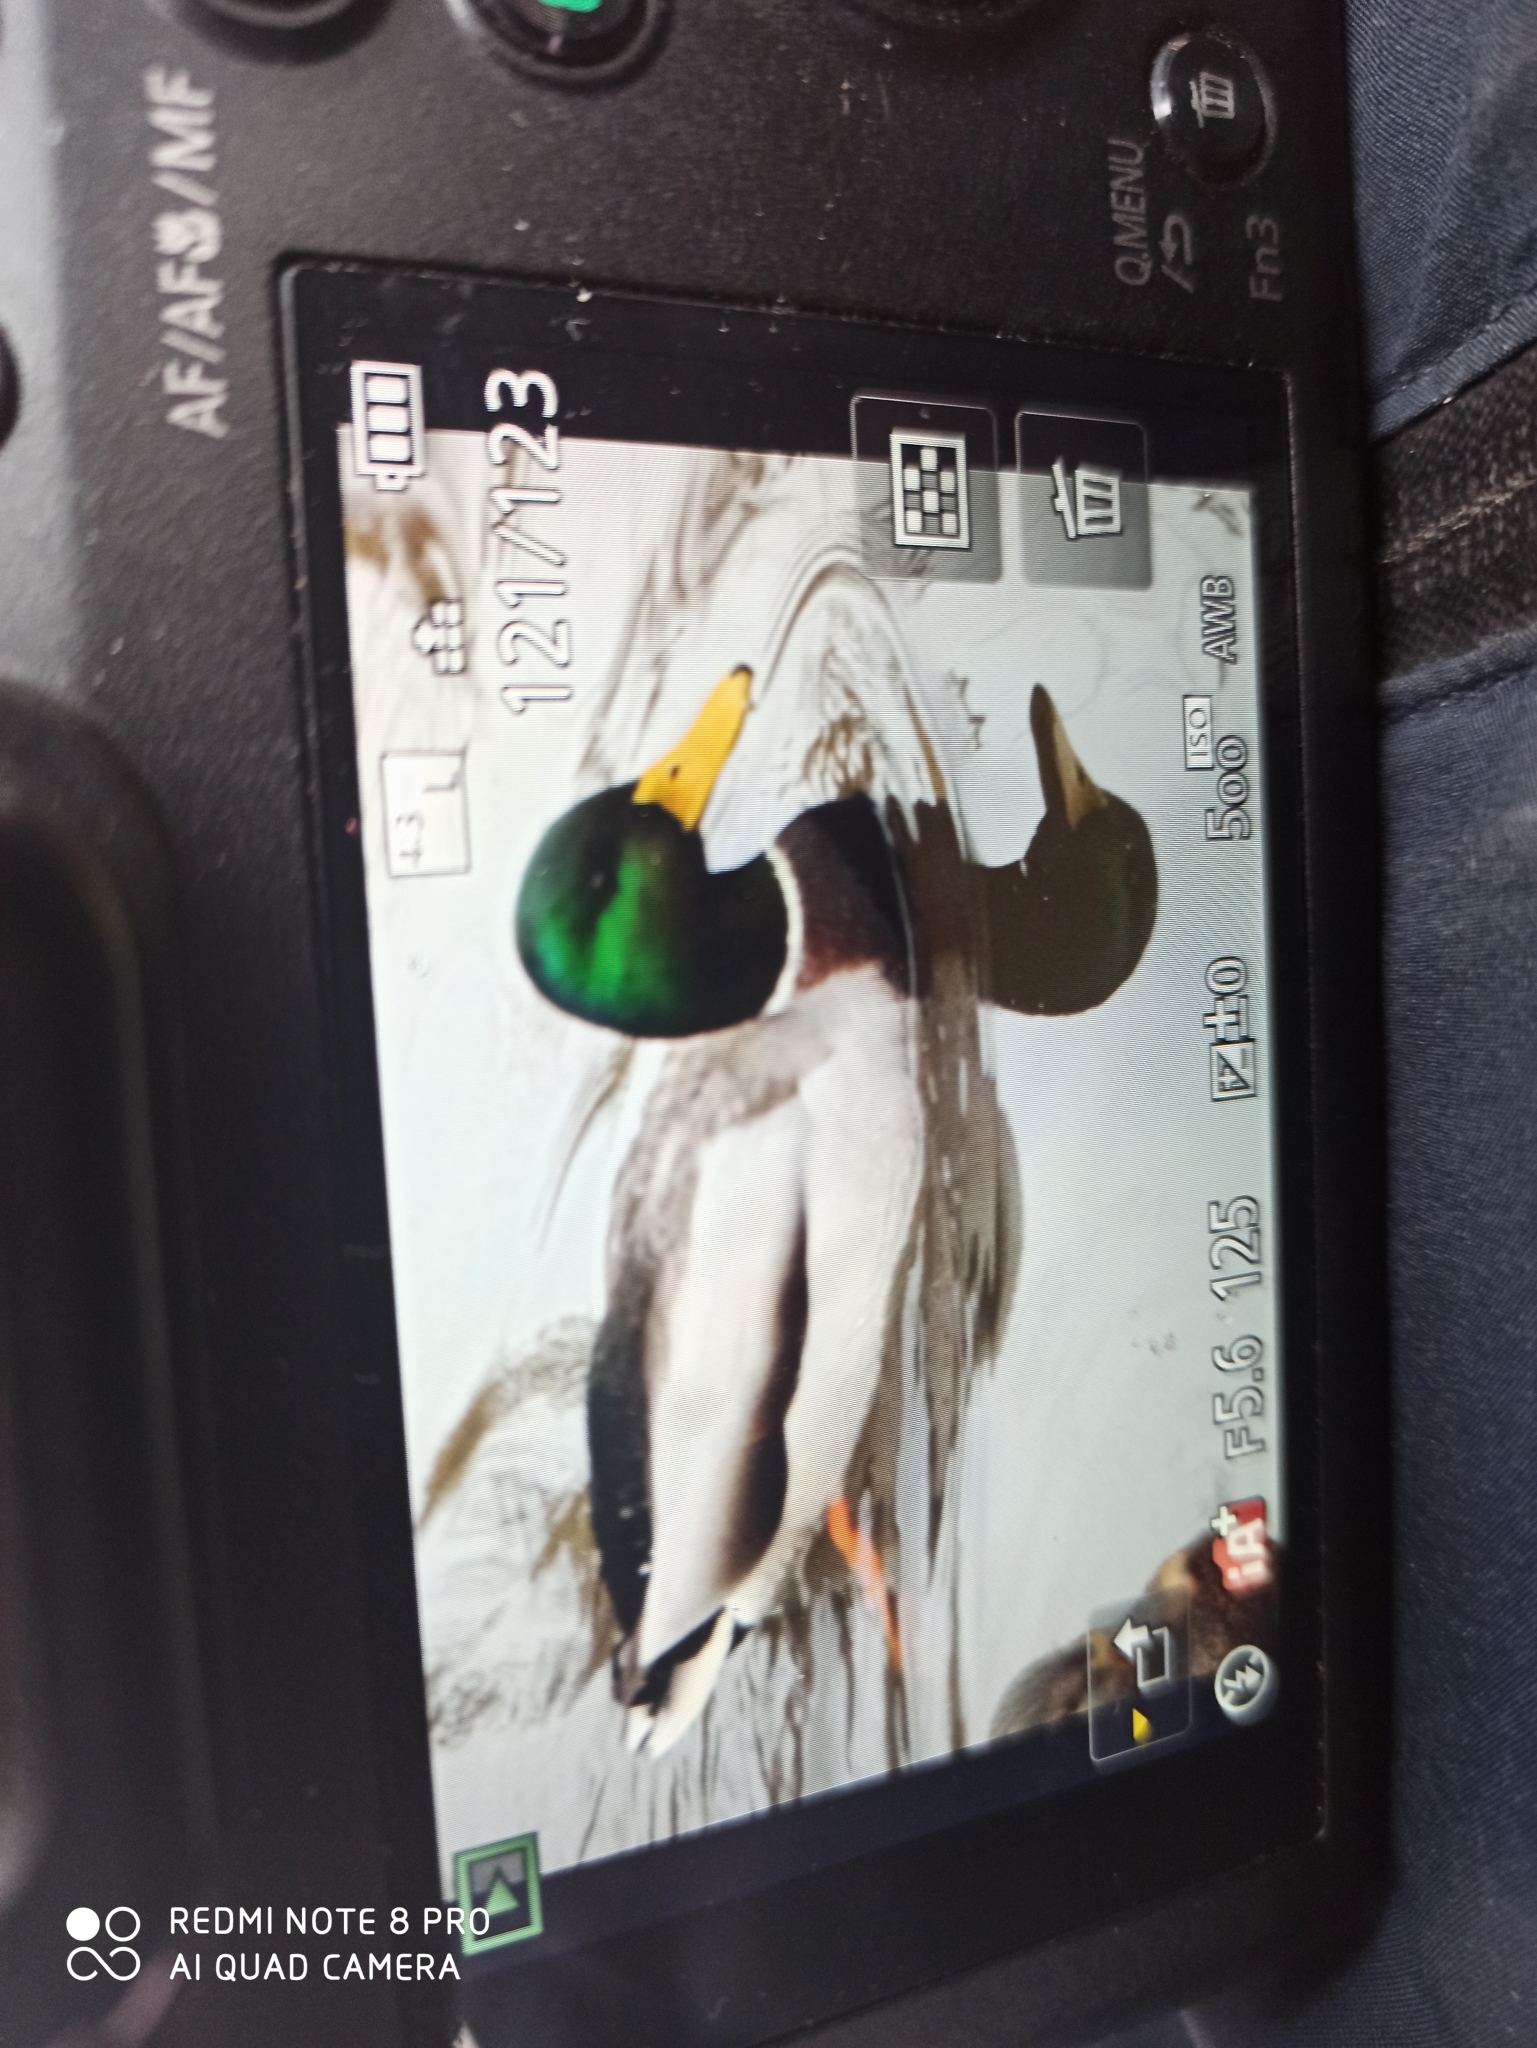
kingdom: Animalia
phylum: Chordata
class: Aves
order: Anseriformes
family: Anatidae
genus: Anas
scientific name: Anas platyrhynchos
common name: Mallard
